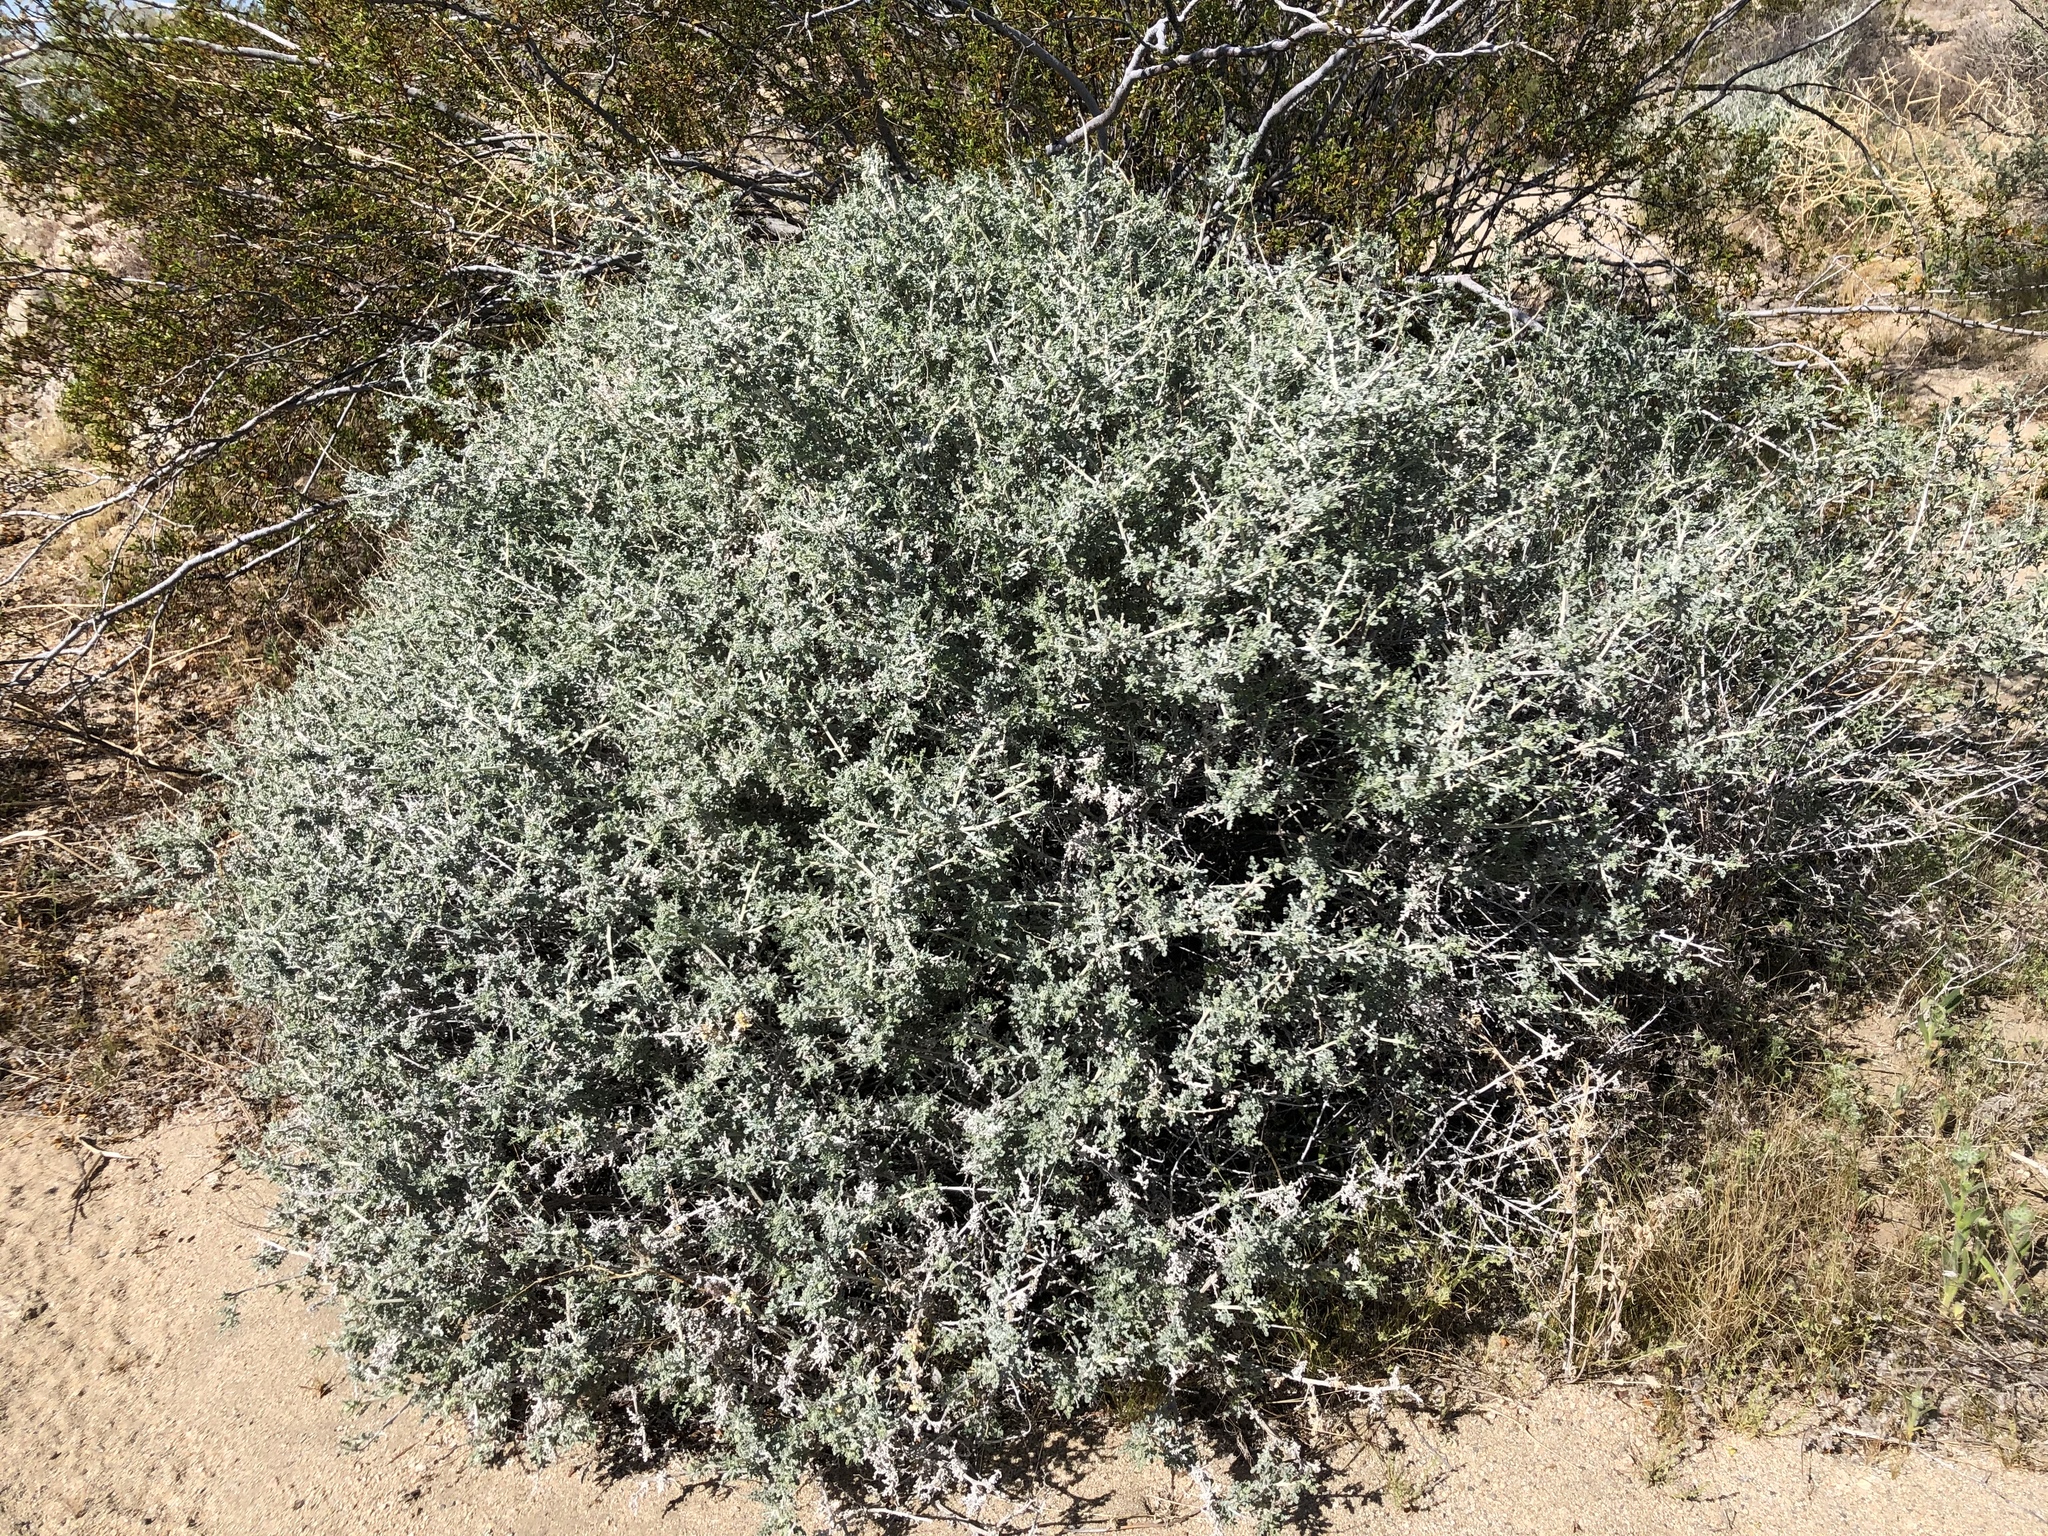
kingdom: Plantae
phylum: Tracheophyta
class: Magnoliopsida
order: Asterales
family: Asteraceae
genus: Ambrosia
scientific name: Ambrosia dumosa
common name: Bur-sage
